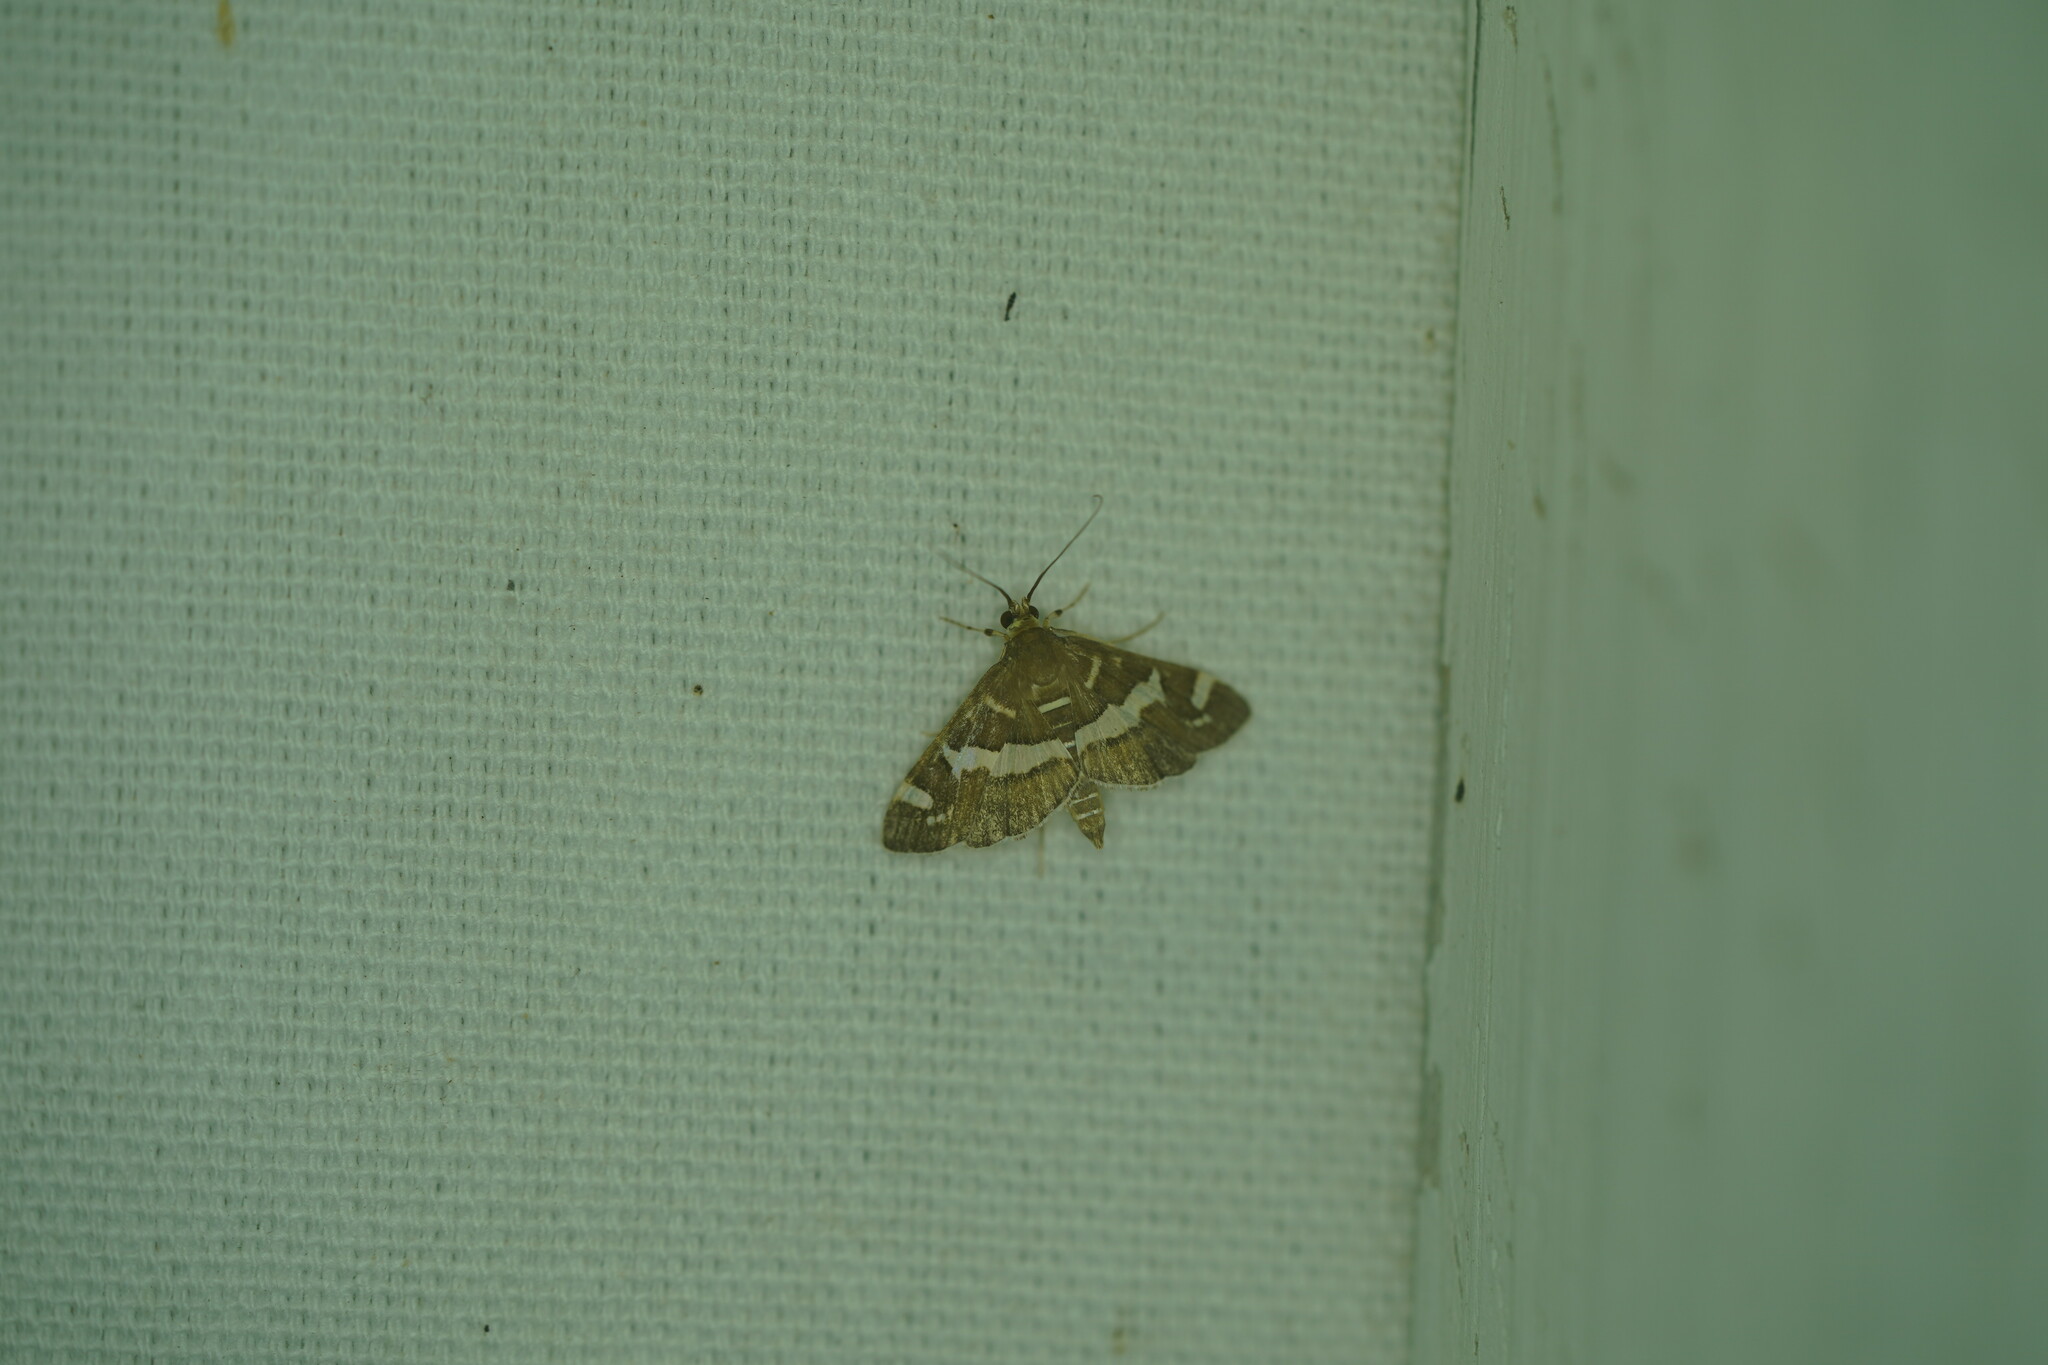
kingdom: Animalia
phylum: Arthropoda
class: Insecta
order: Lepidoptera
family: Crambidae
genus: Spoladea
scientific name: Spoladea recurvalis
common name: Beet webworm moth
